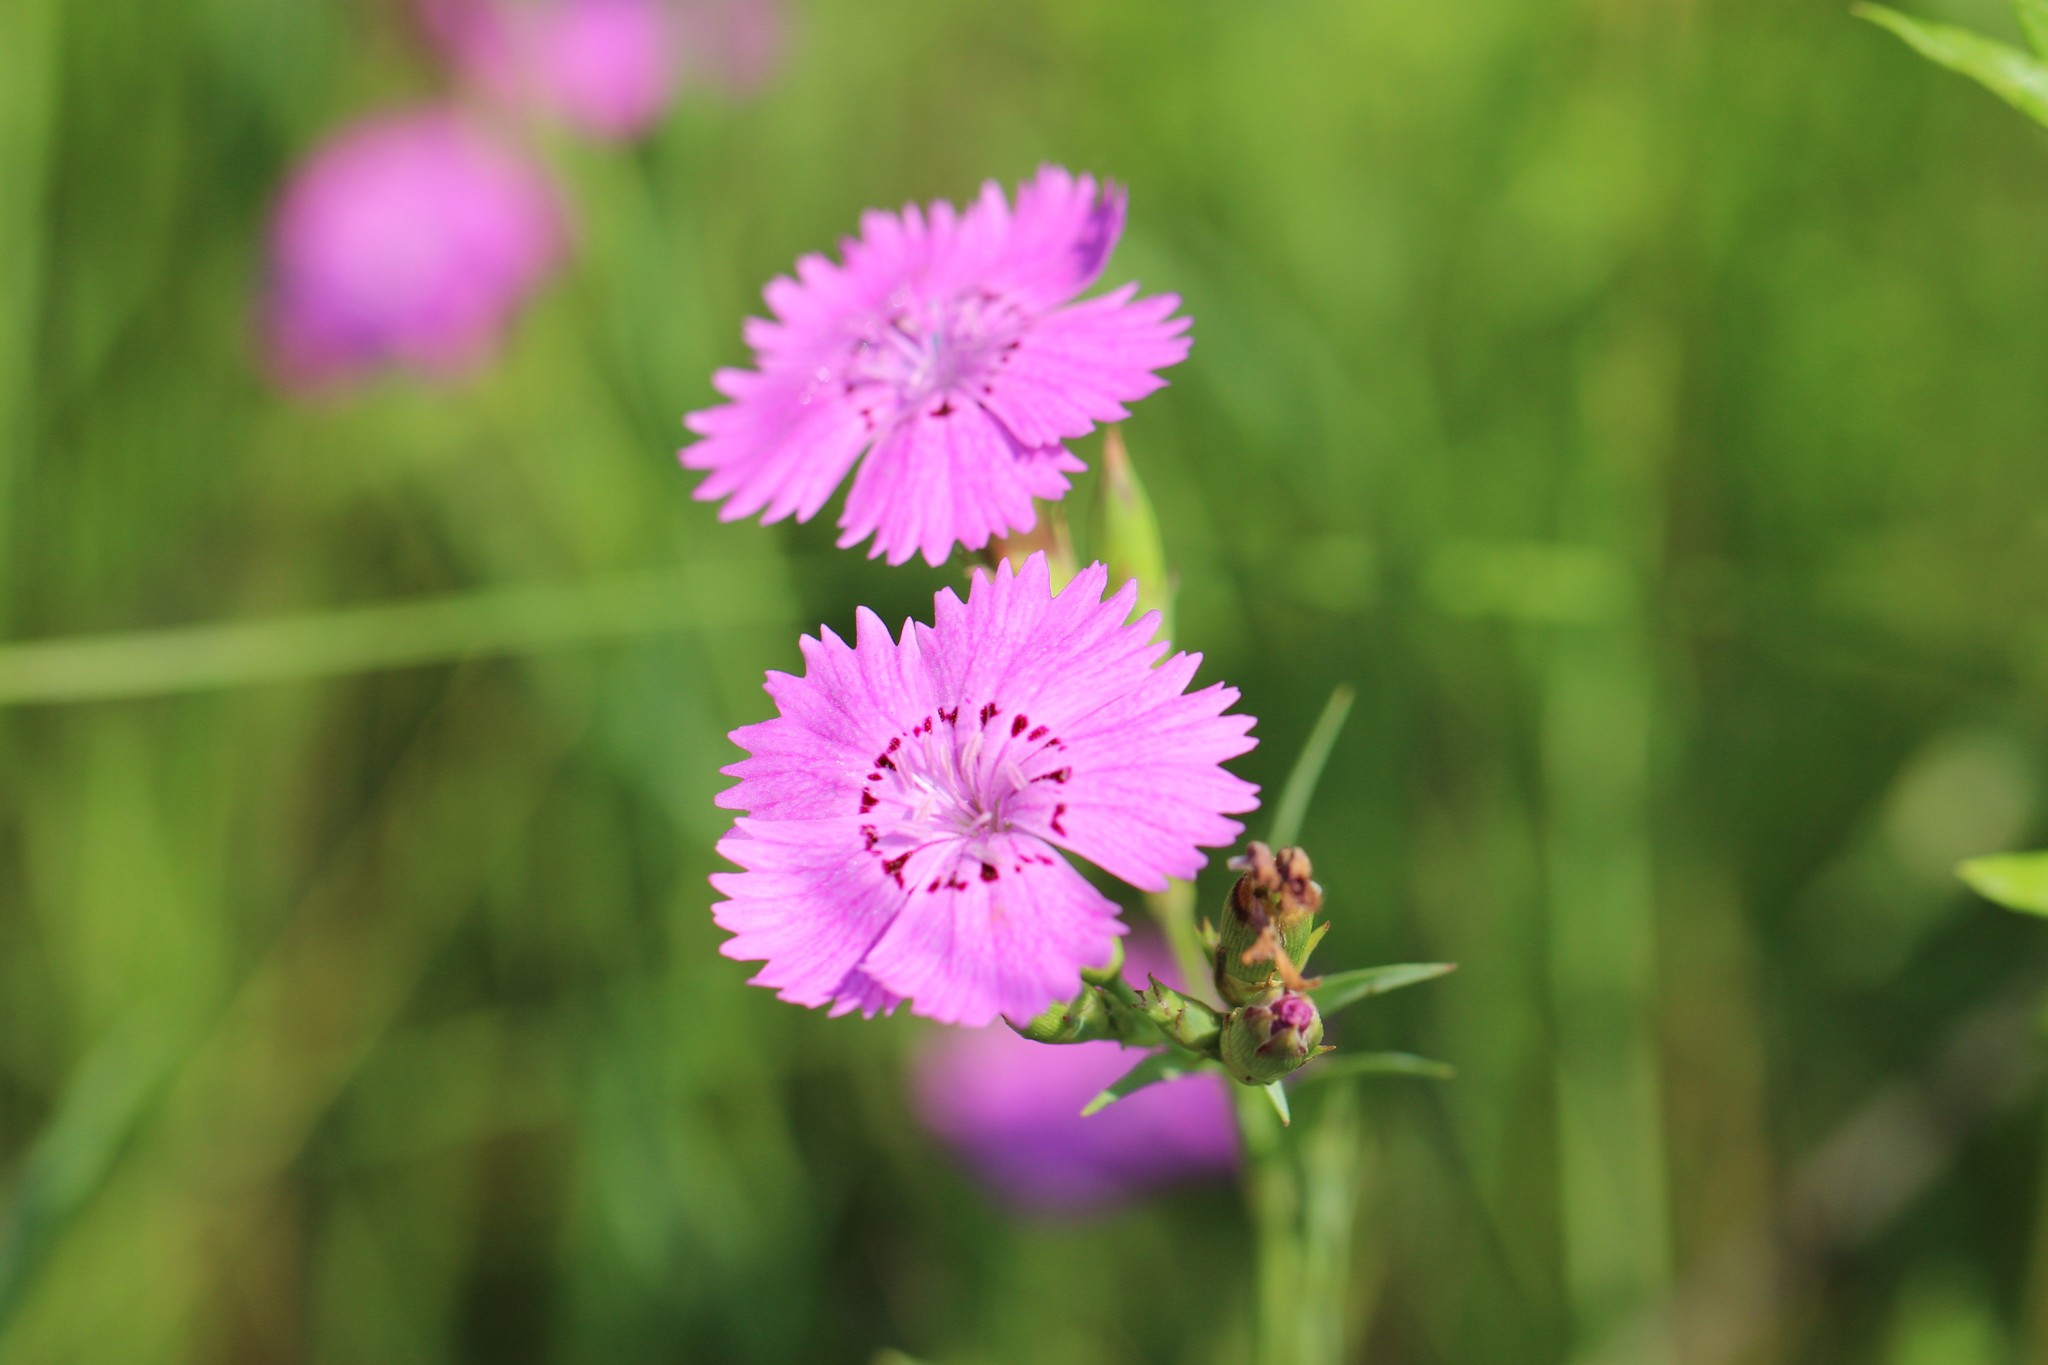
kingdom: Plantae
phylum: Tracheophyta
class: Magnoliopsida
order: Caryophyllales
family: Caryophyllaceae
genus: Dianthus
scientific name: Dianthus chinensis
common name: Rainbow pink
